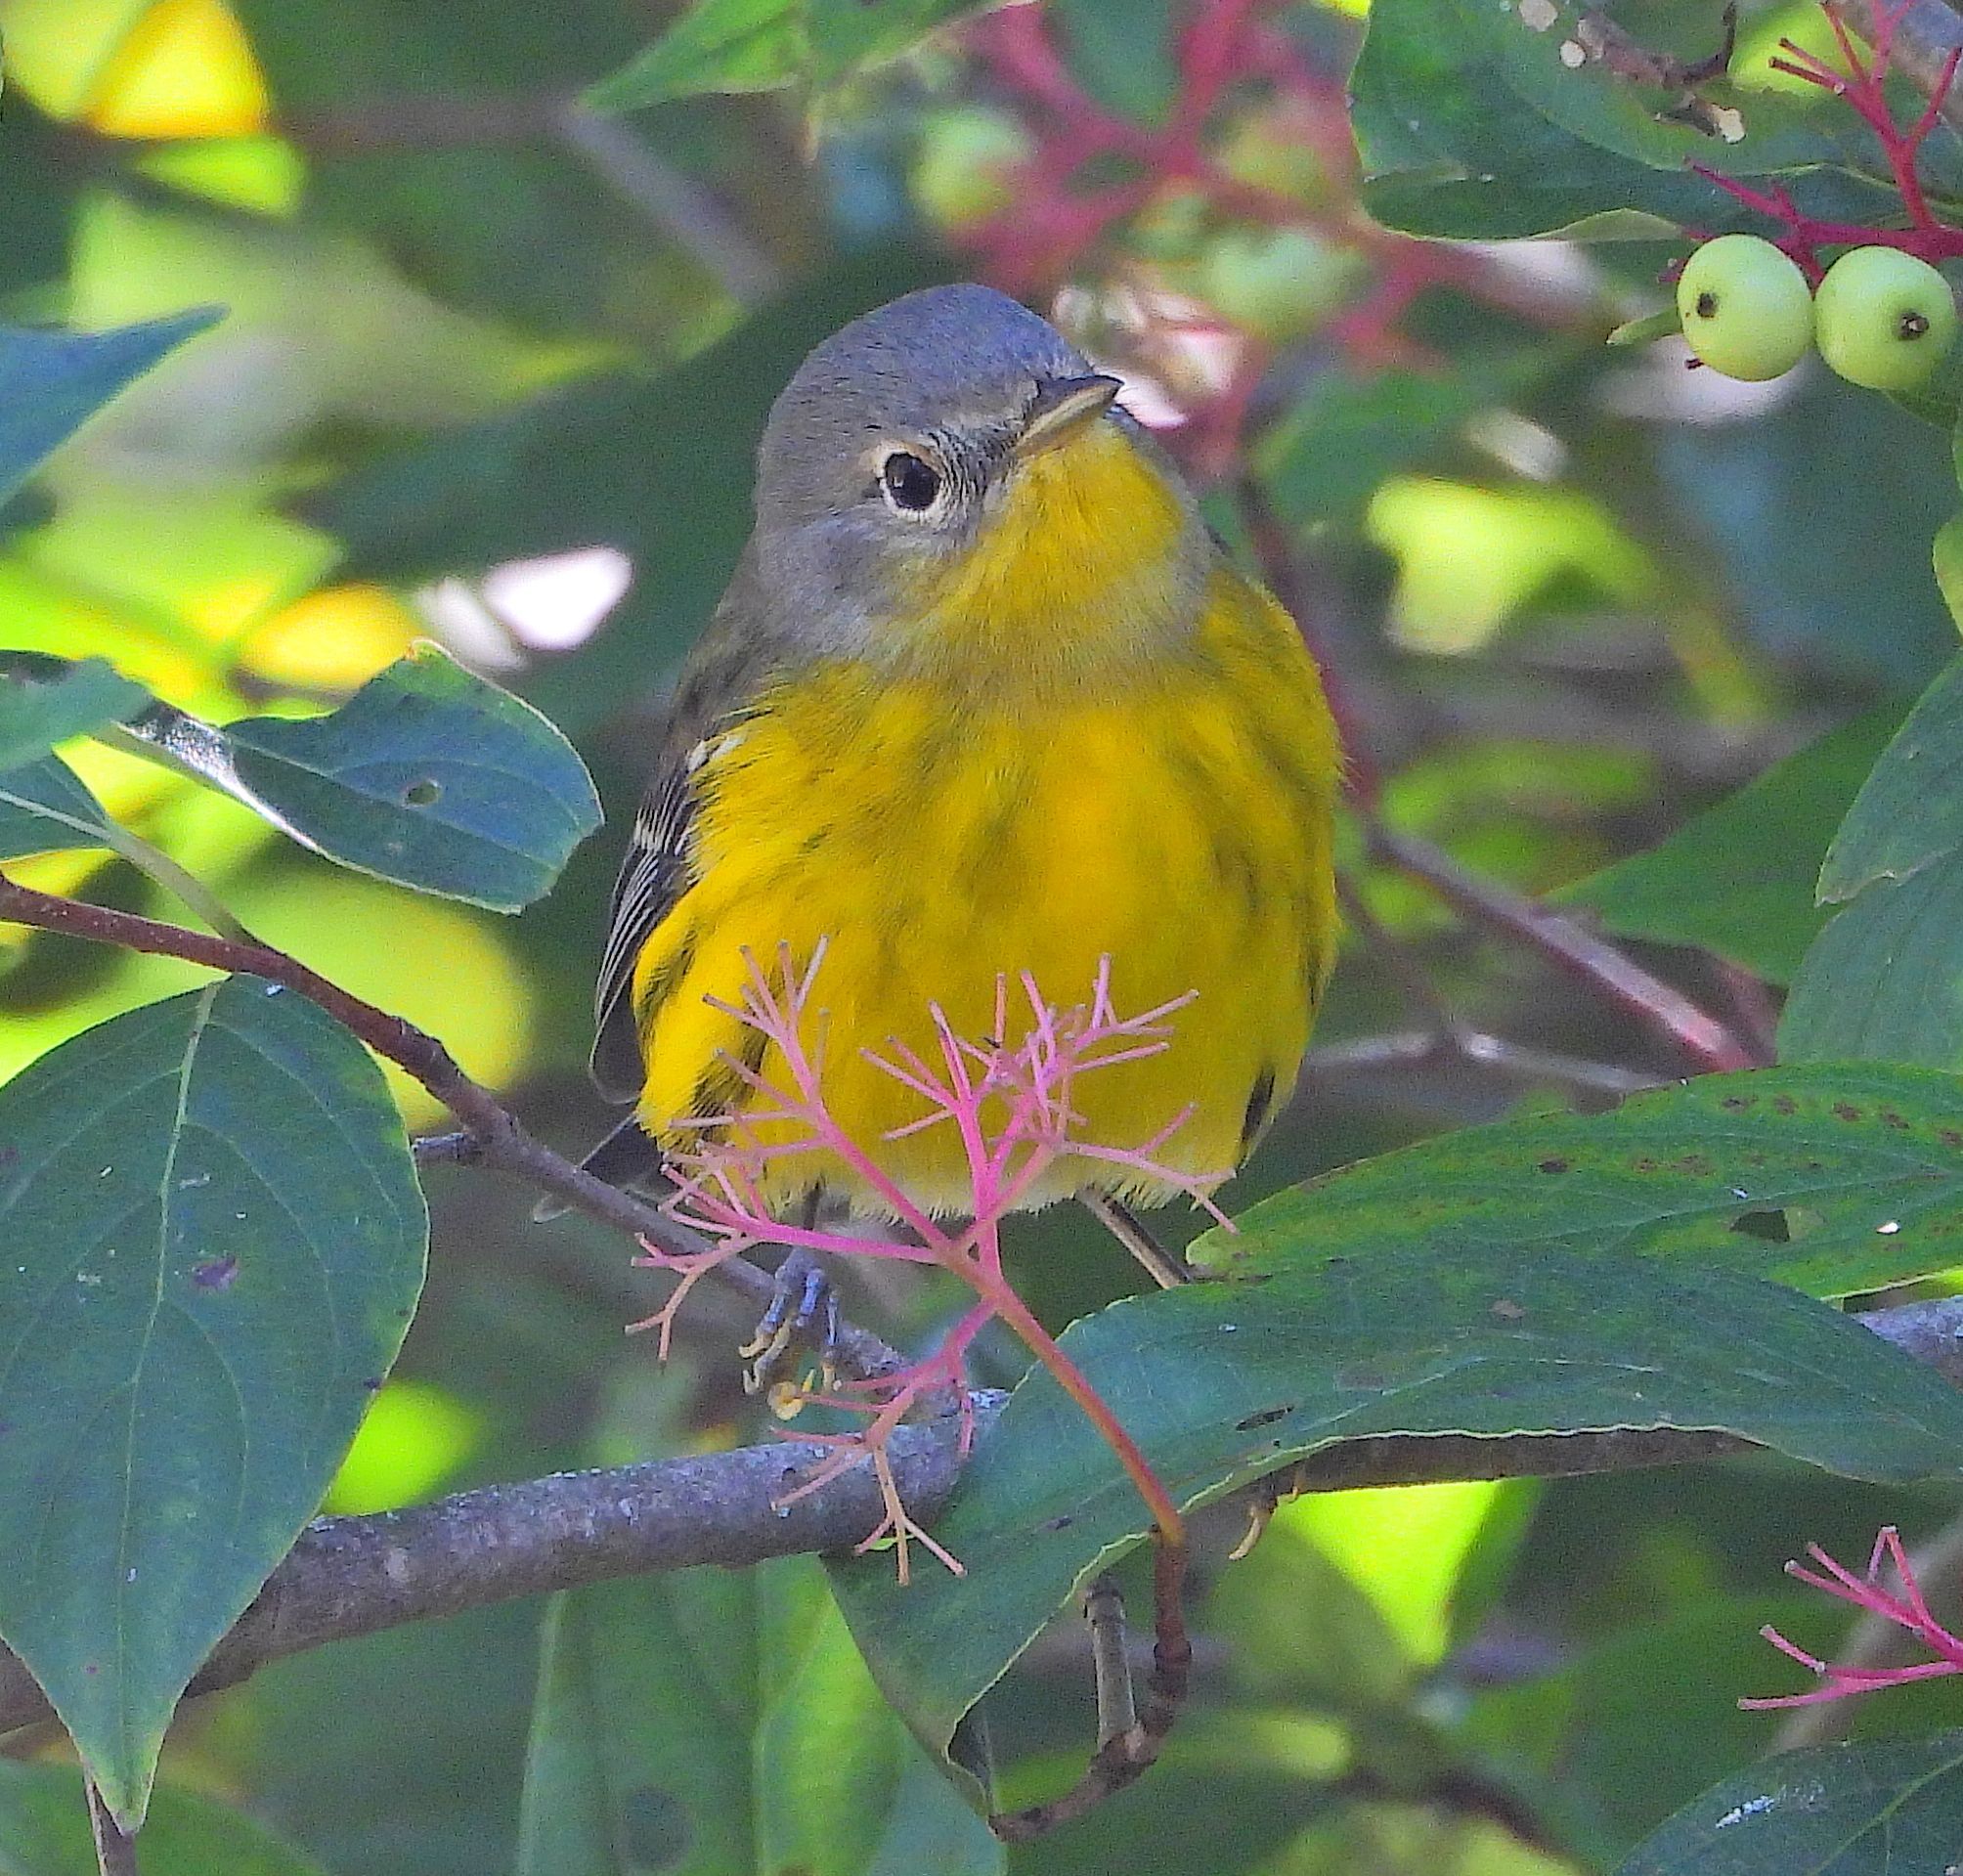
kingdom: Animalia
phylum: Chordata
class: Aves
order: Passeriformes
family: Parulidae
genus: Setophaga
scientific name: Setophaga magnolia
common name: Magnolia warbler
